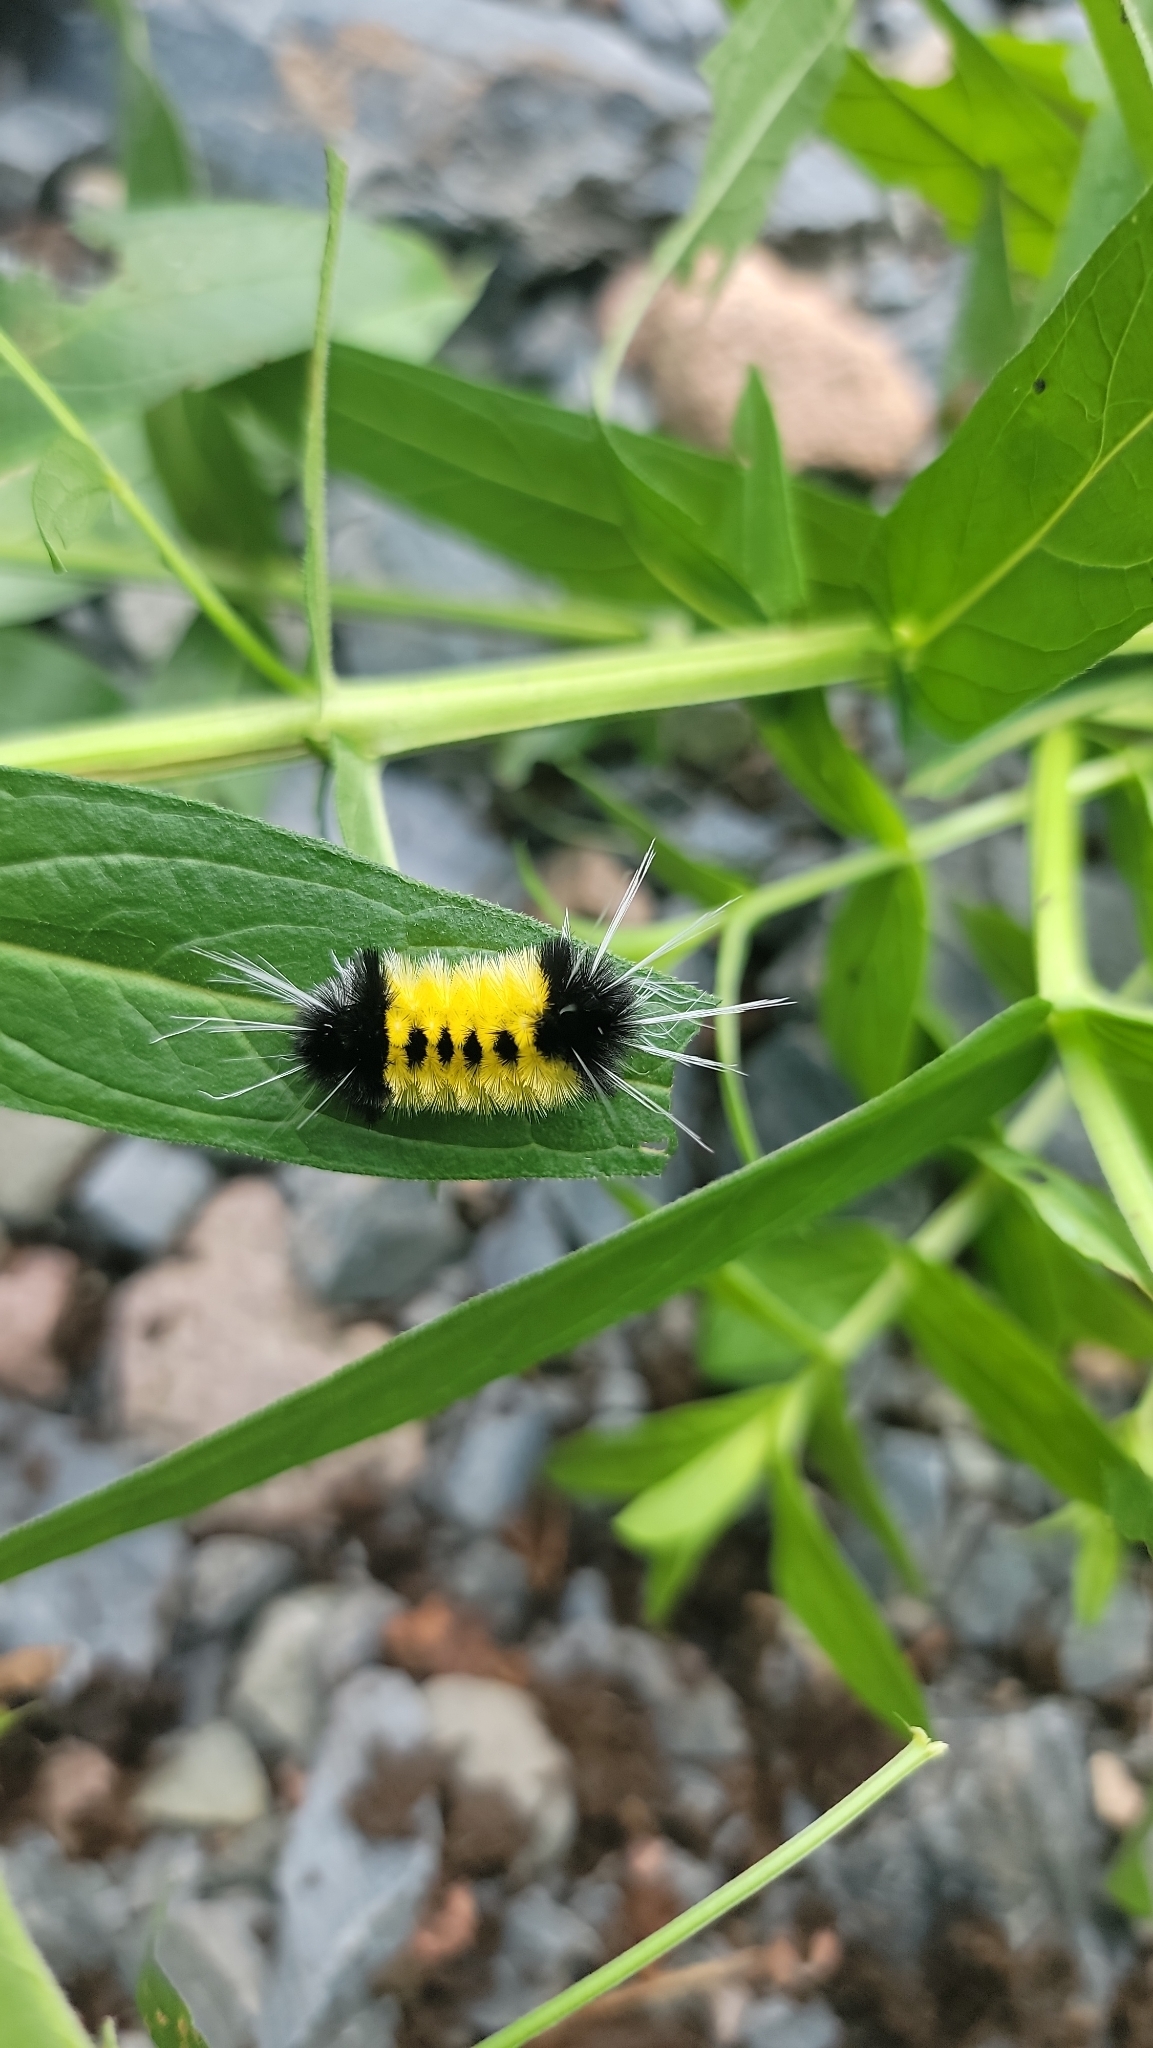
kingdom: Animalia
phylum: Arthropoda
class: Insecta
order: Lepidoptera
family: Erebidae
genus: Lophocampa
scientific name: Lophocampa maculata
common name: Spotted tussock moth
